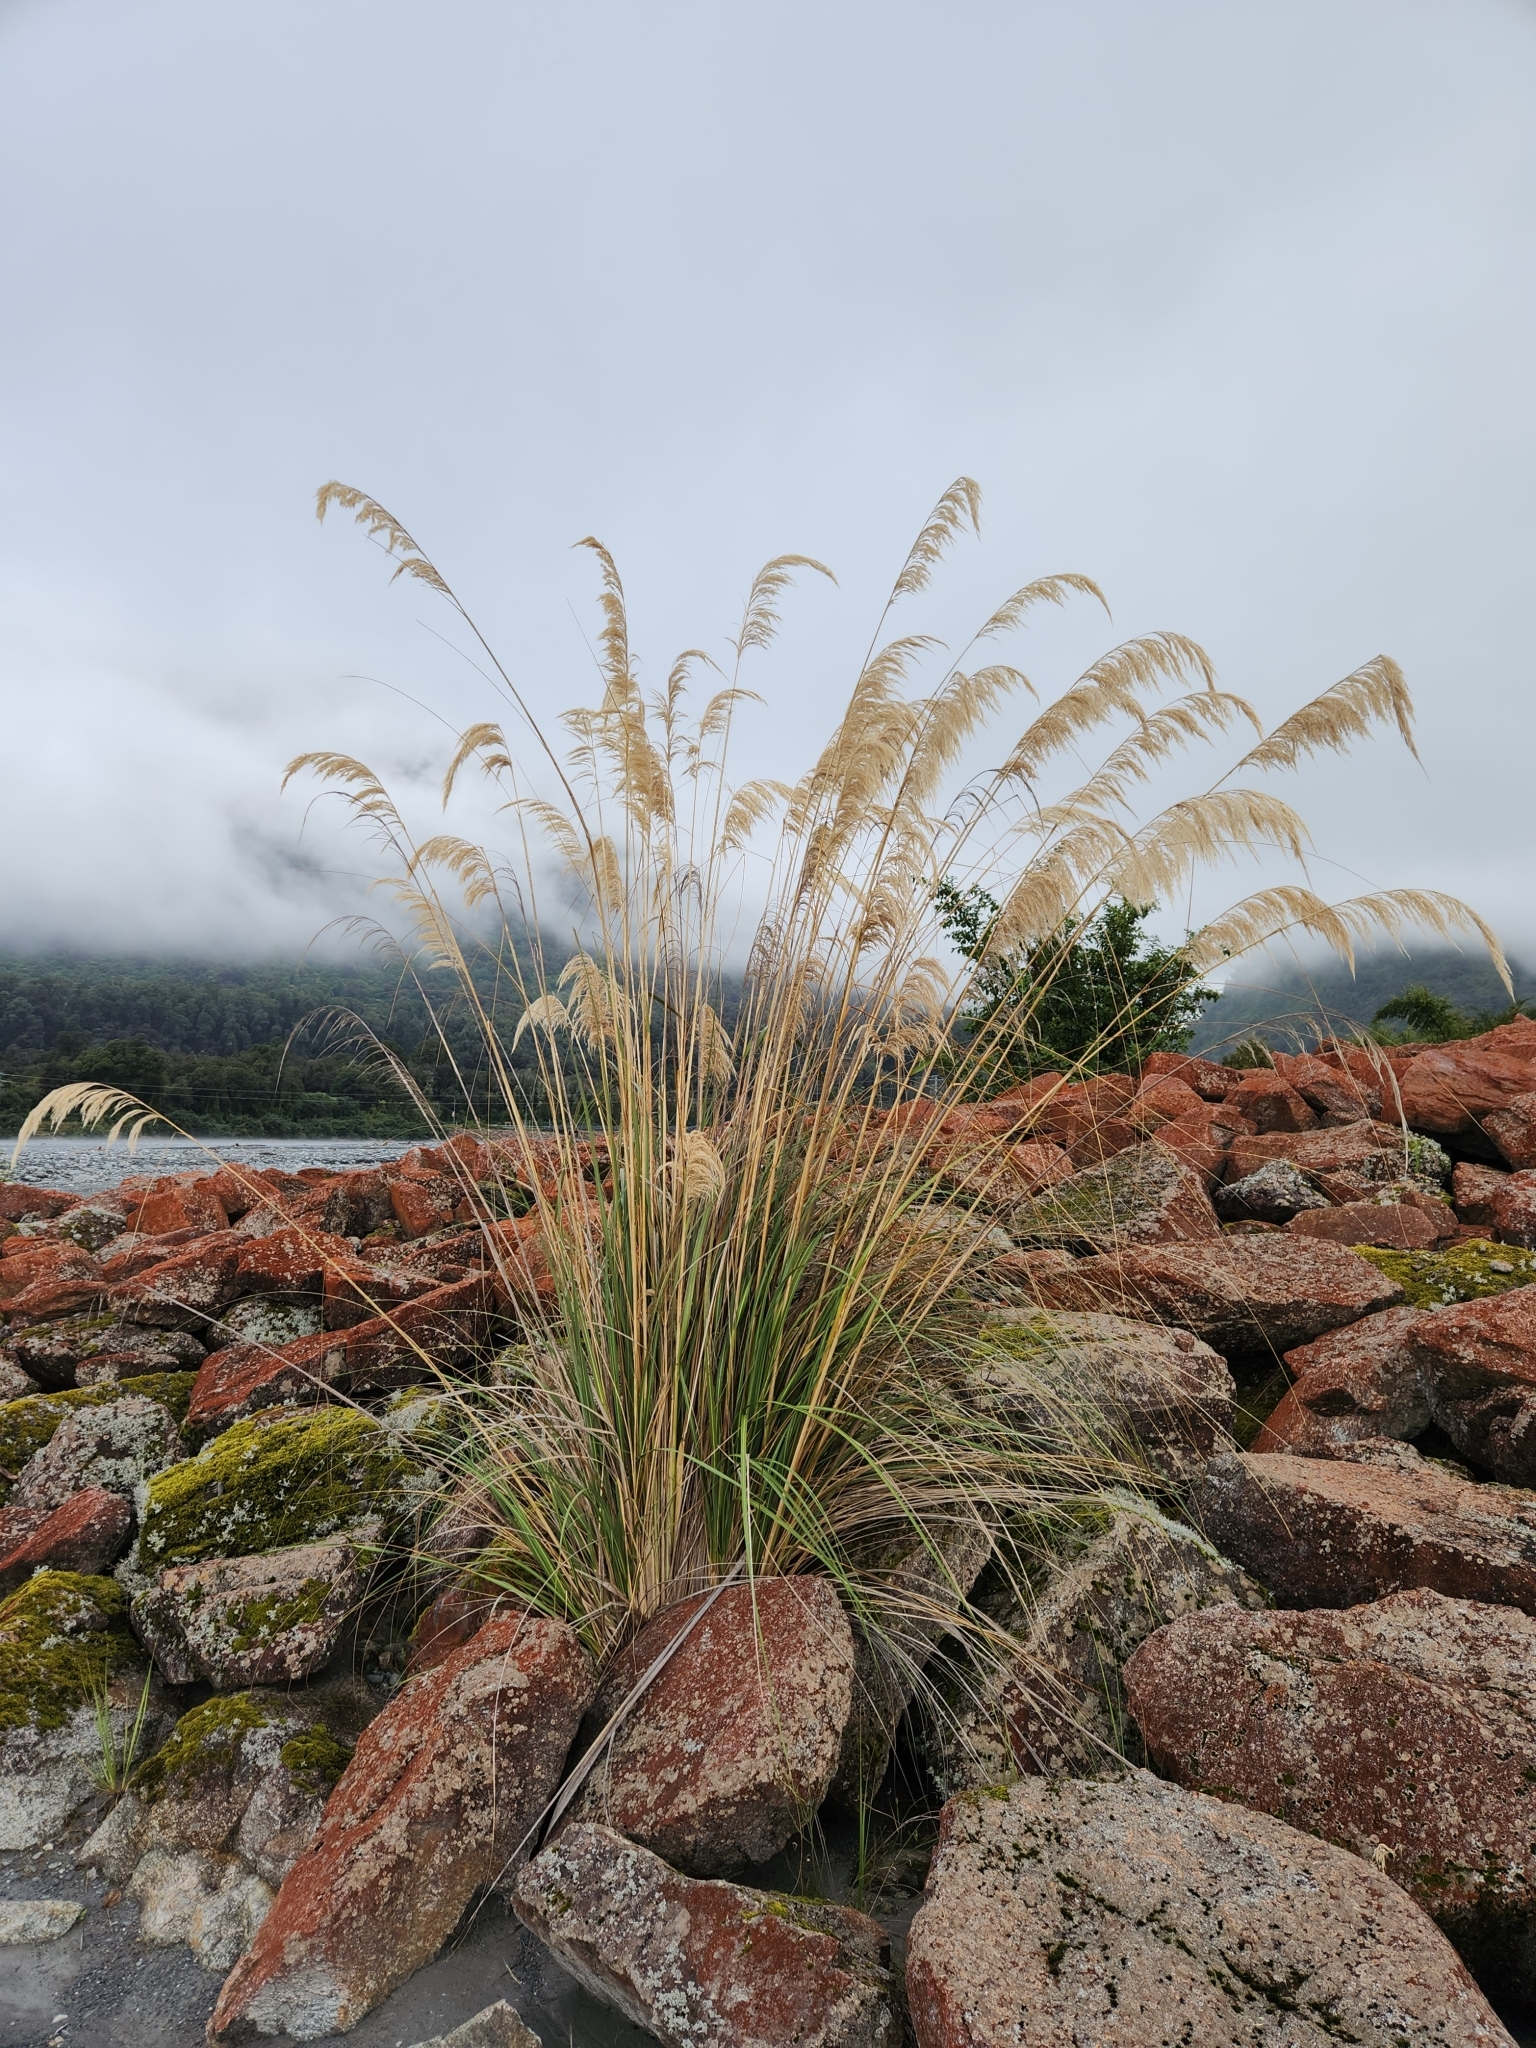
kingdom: Plantae
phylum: Tracheophyta
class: Liliopsida
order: Poales
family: Poaceae
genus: Austroderia
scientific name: Austroderia richardii
